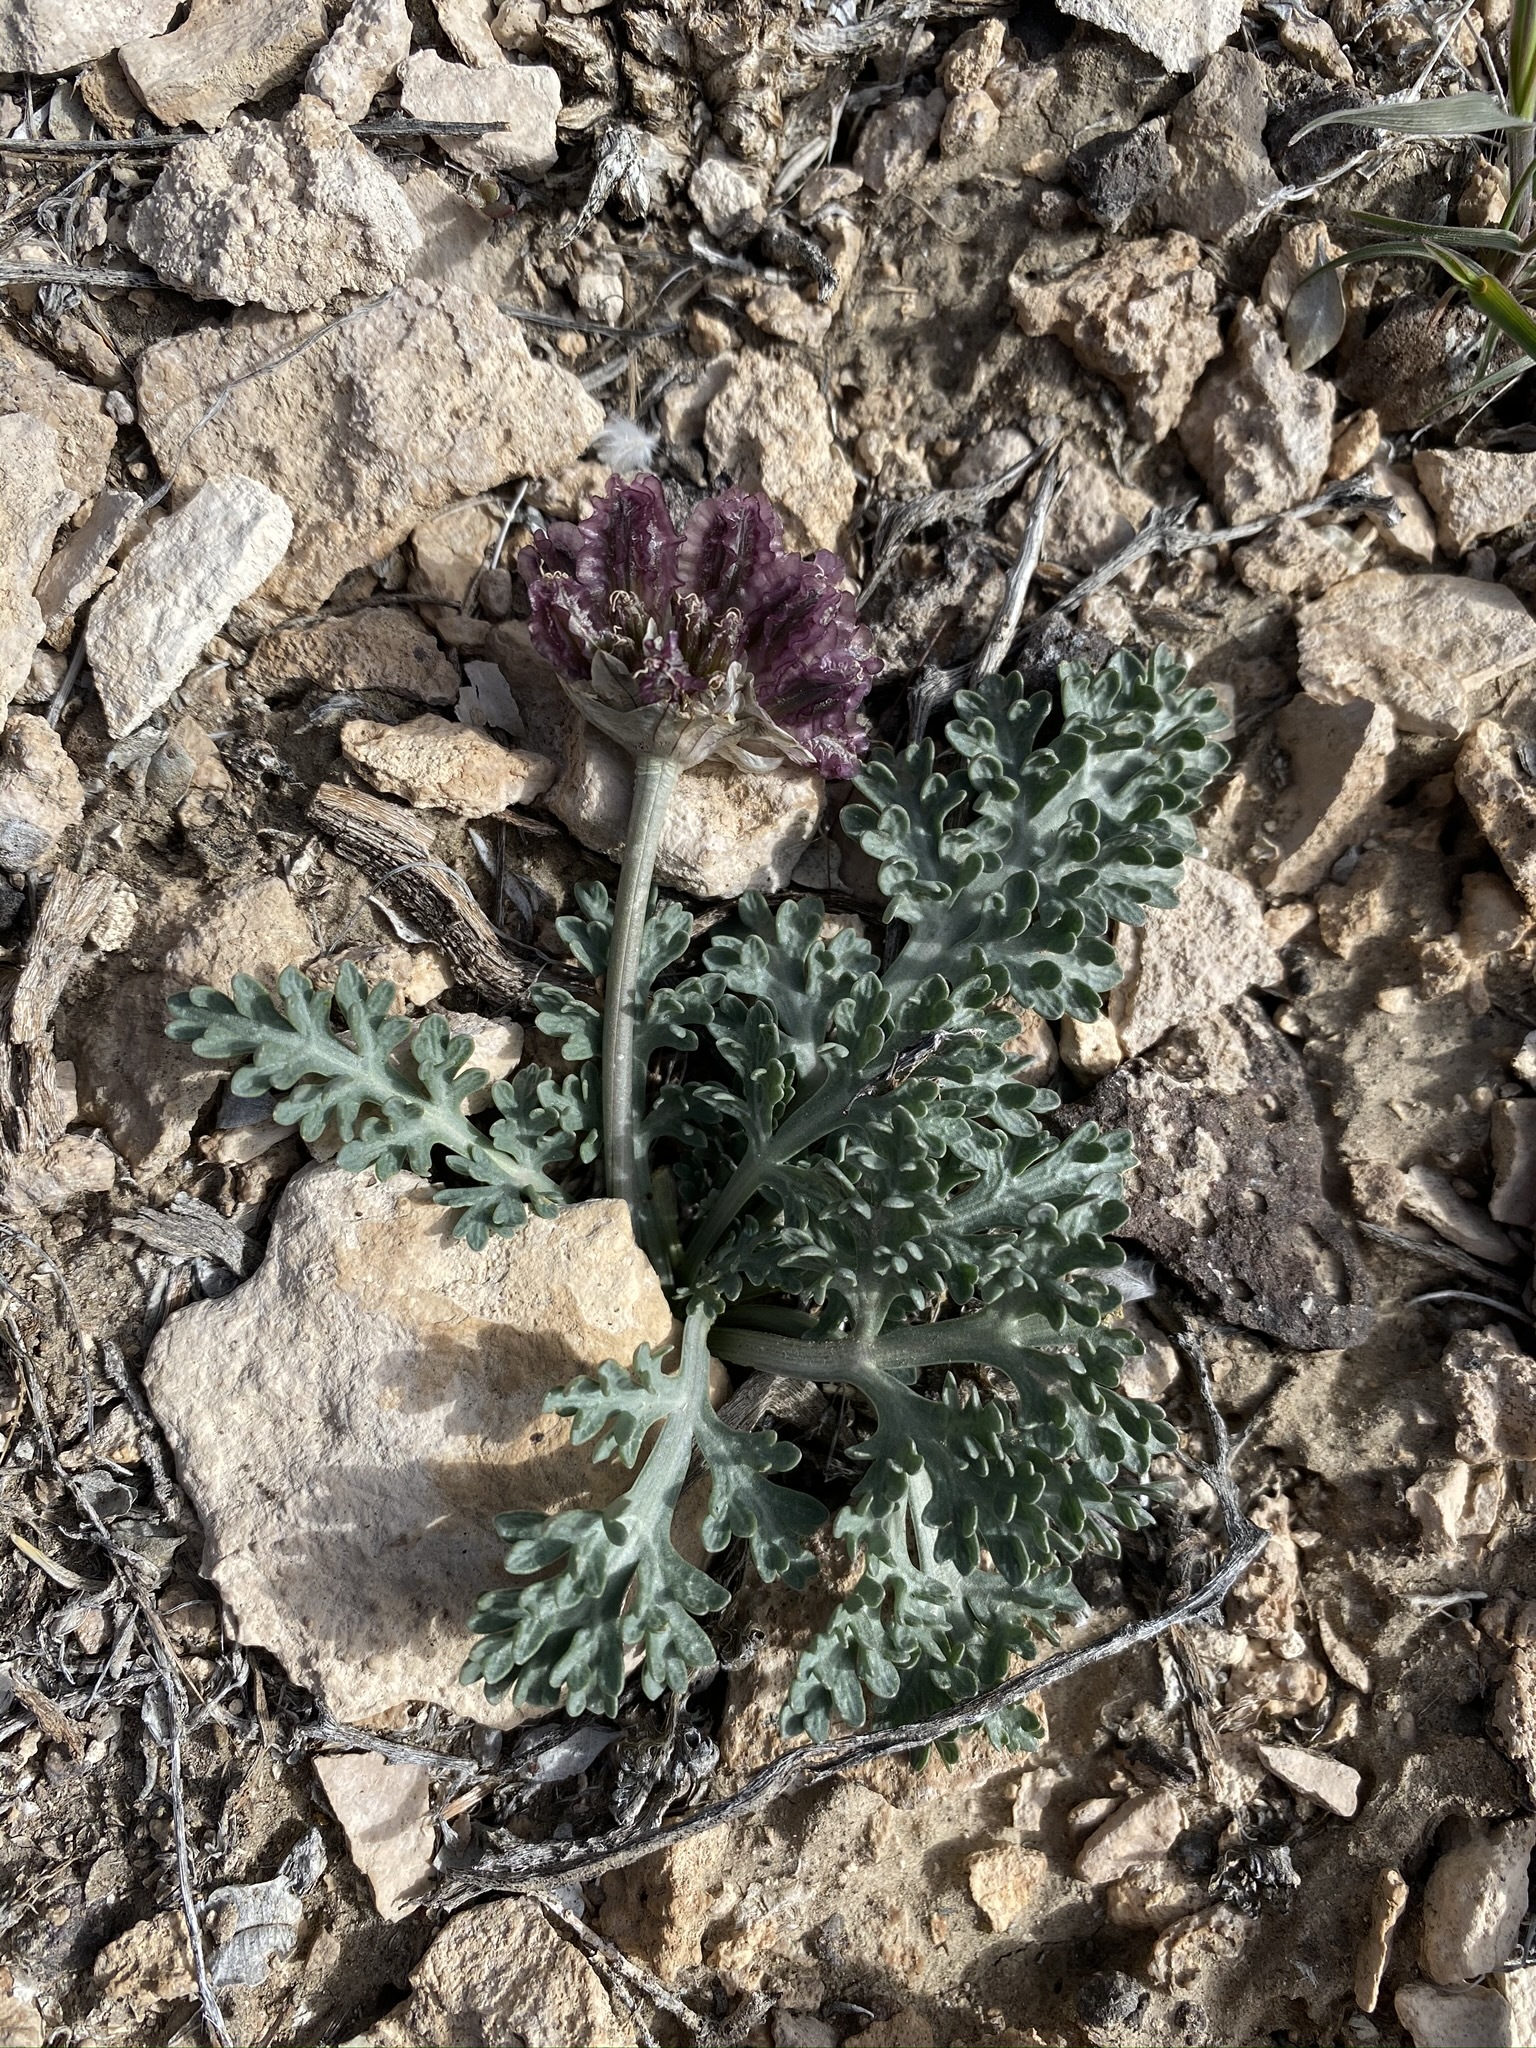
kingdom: Plantae
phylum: Tracheophyta
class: Magnoliopsida
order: Apiales
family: Apiaceae
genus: Vesper
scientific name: Vesper purpurascens
